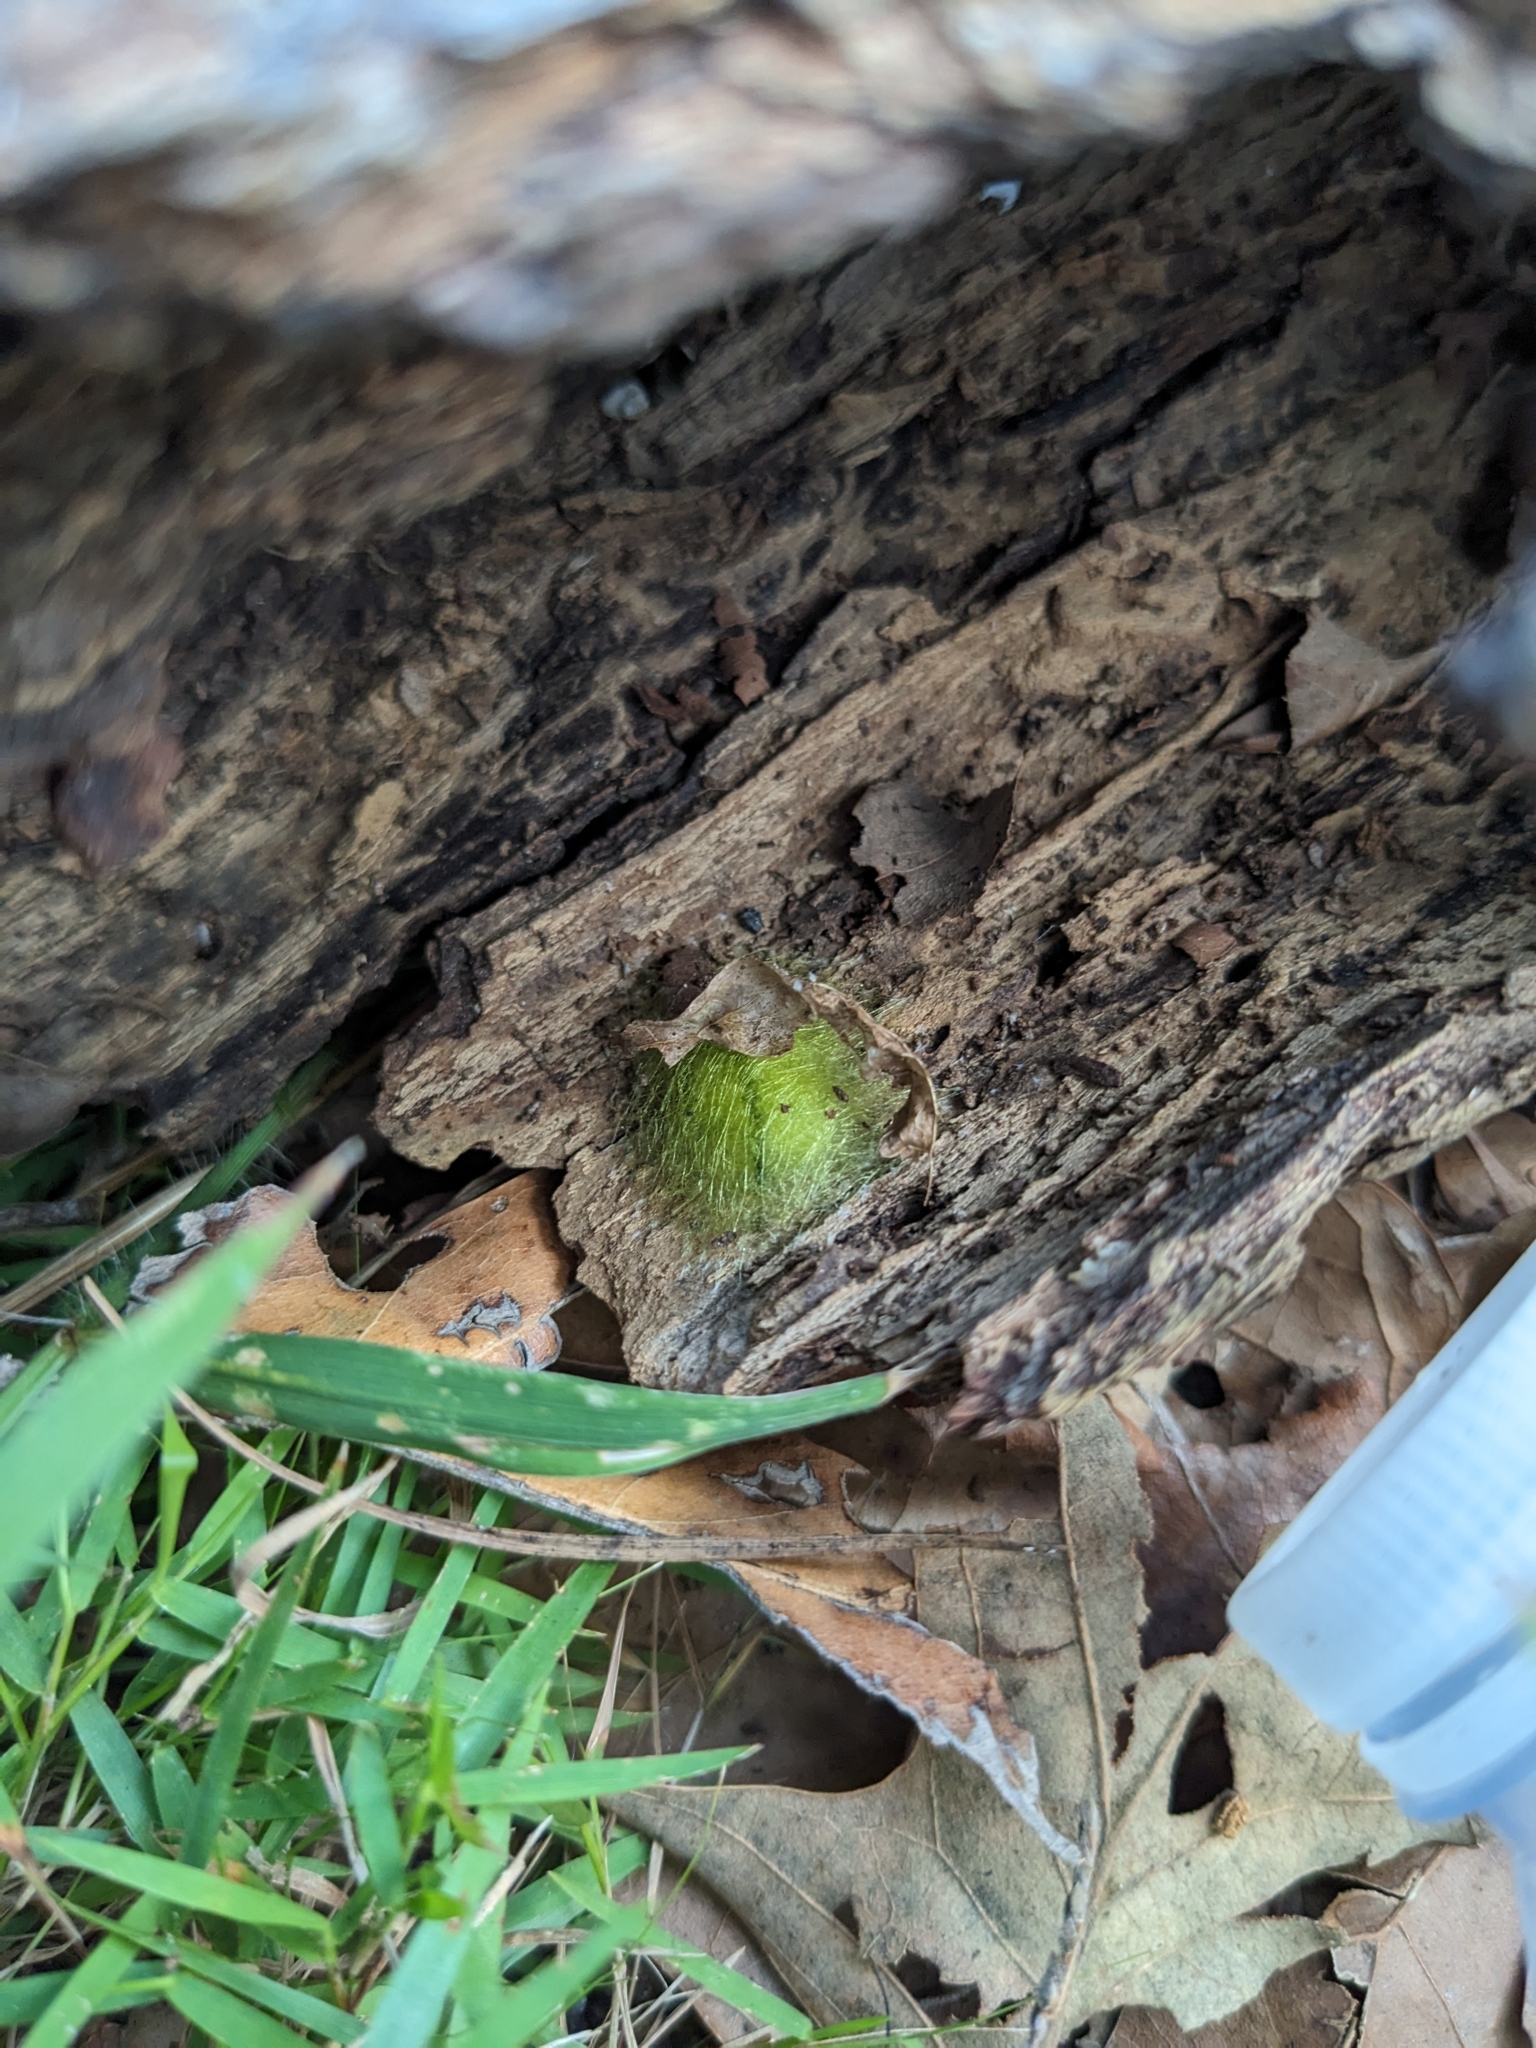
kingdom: Animalia
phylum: Arthropoda
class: Arachnida
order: Araneae
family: Araneidae
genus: Gasteracantha
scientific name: Gasteracantha cancriformis
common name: Orb weavers
